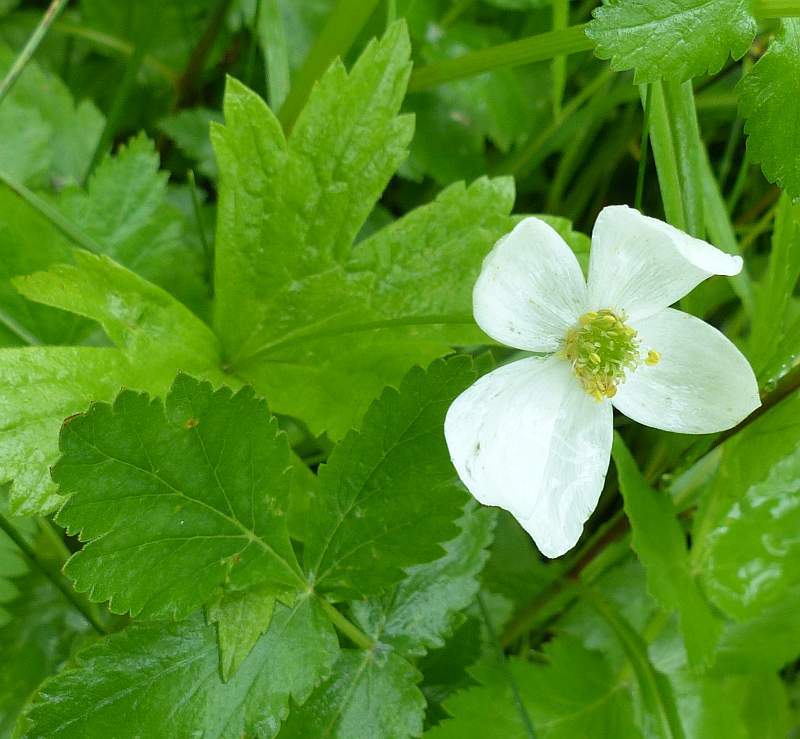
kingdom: Plantae
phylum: Tracheophyta
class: Magnoliopsida
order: Ranunculales
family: Ranunculaceae
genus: Anemonastrum
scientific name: Anemonastrum canadense
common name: Canada anemone
